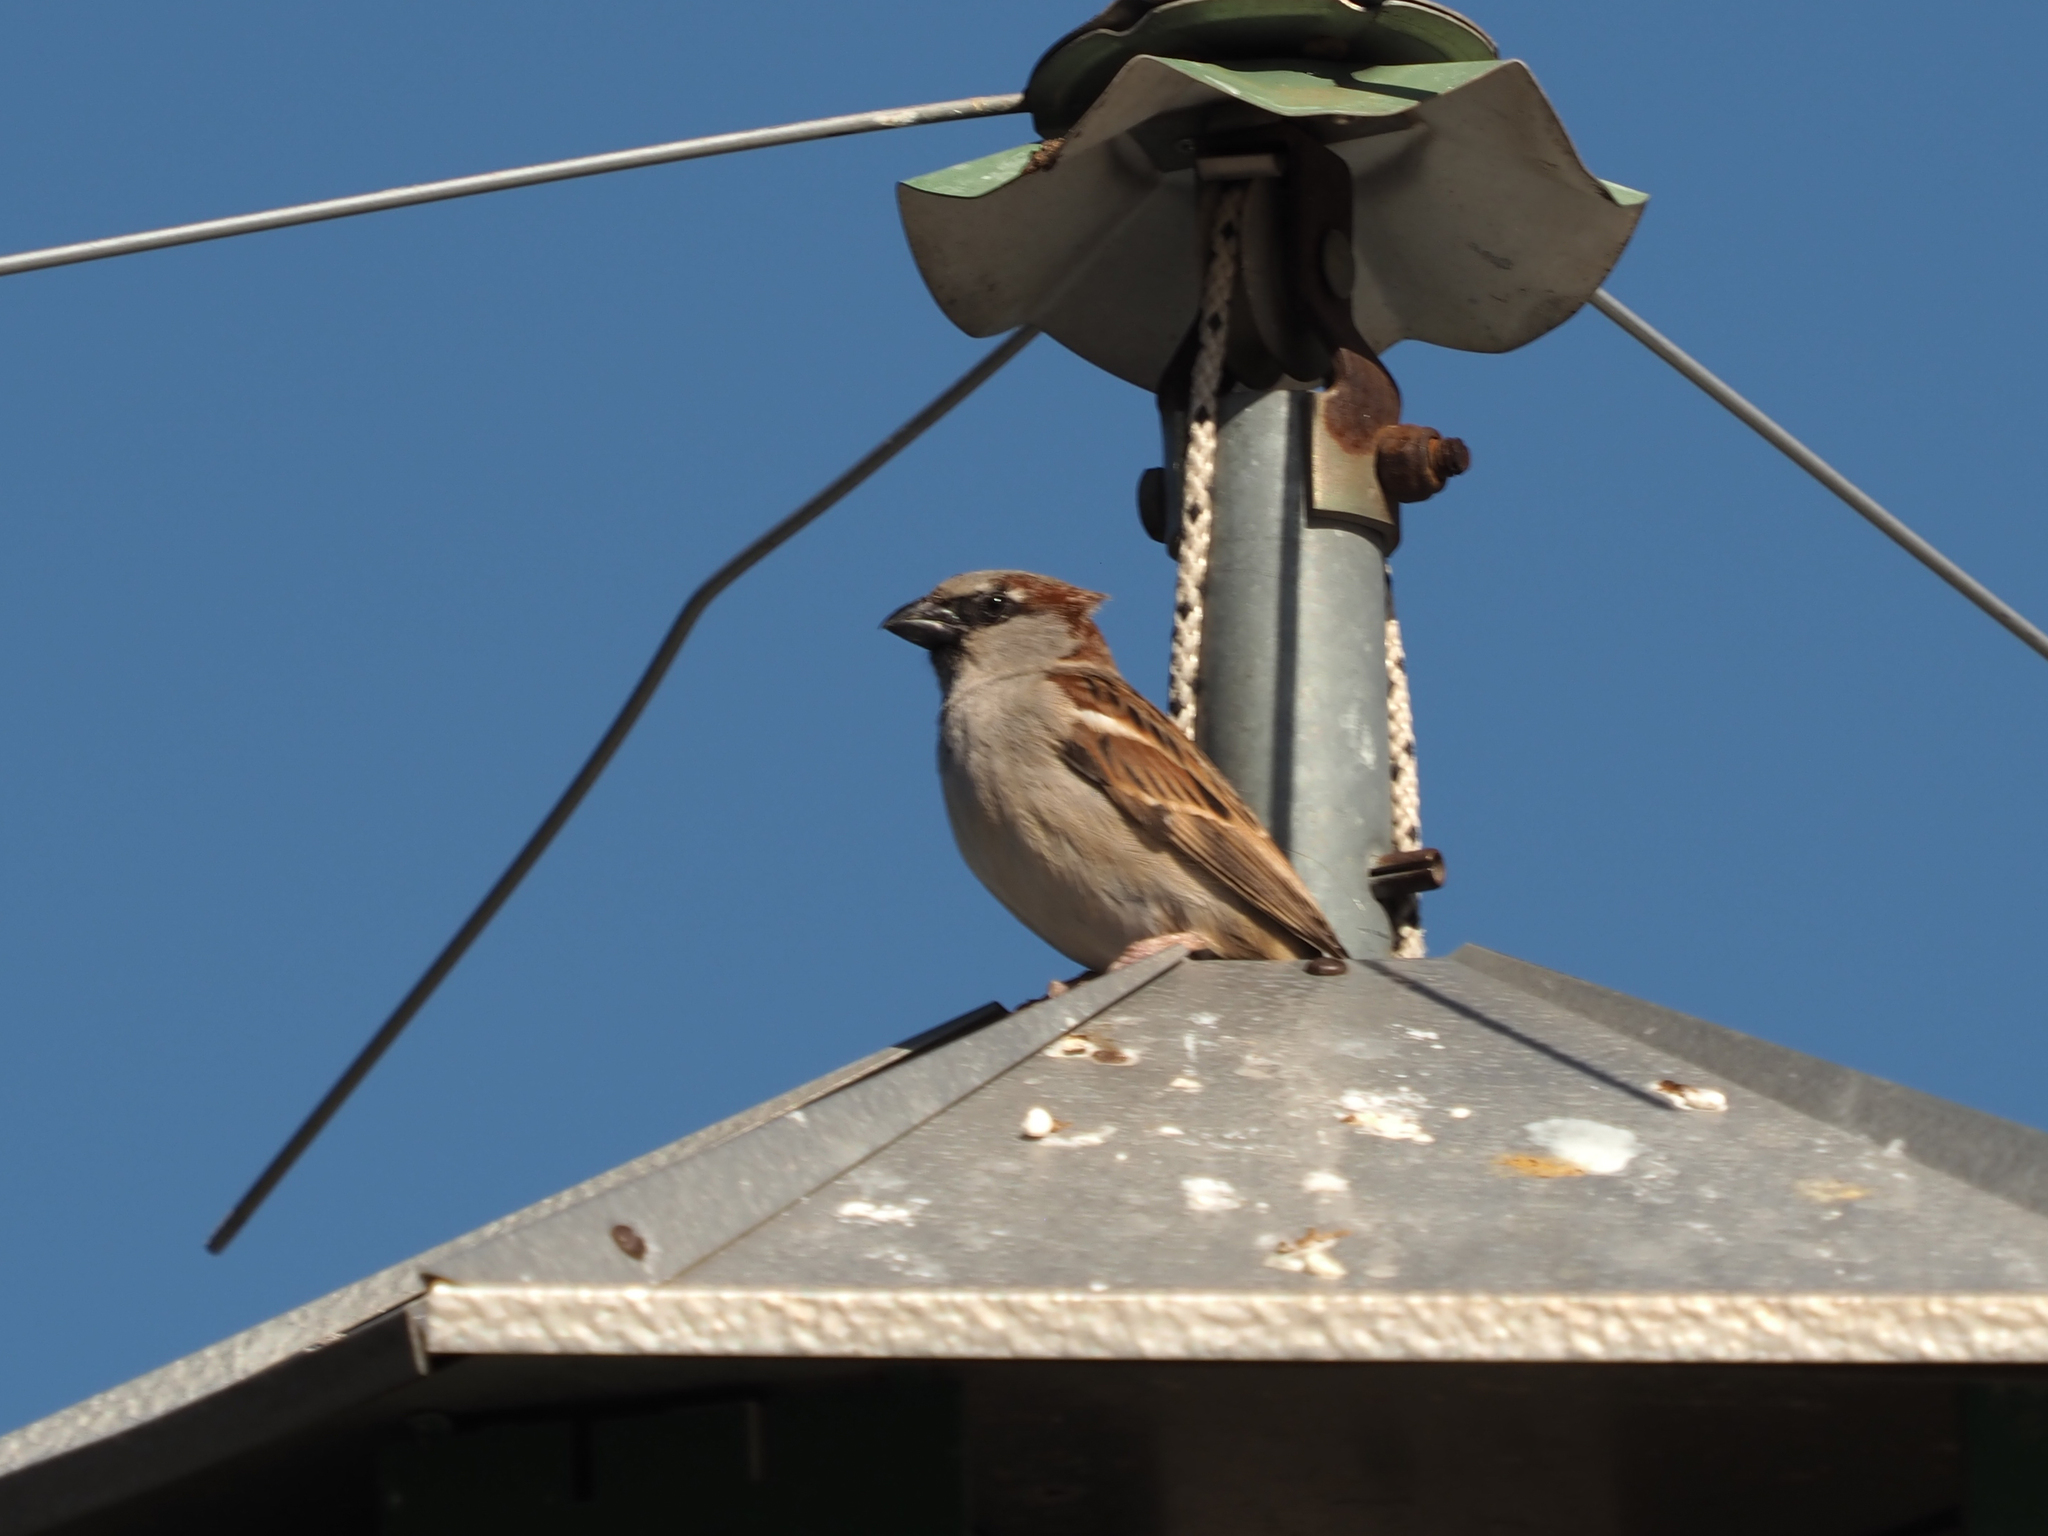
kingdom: Animalia
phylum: Chordata
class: Aves
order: Passeriformes
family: Passeridae
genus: Passer
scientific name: Passer domesticus
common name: House sparrow
